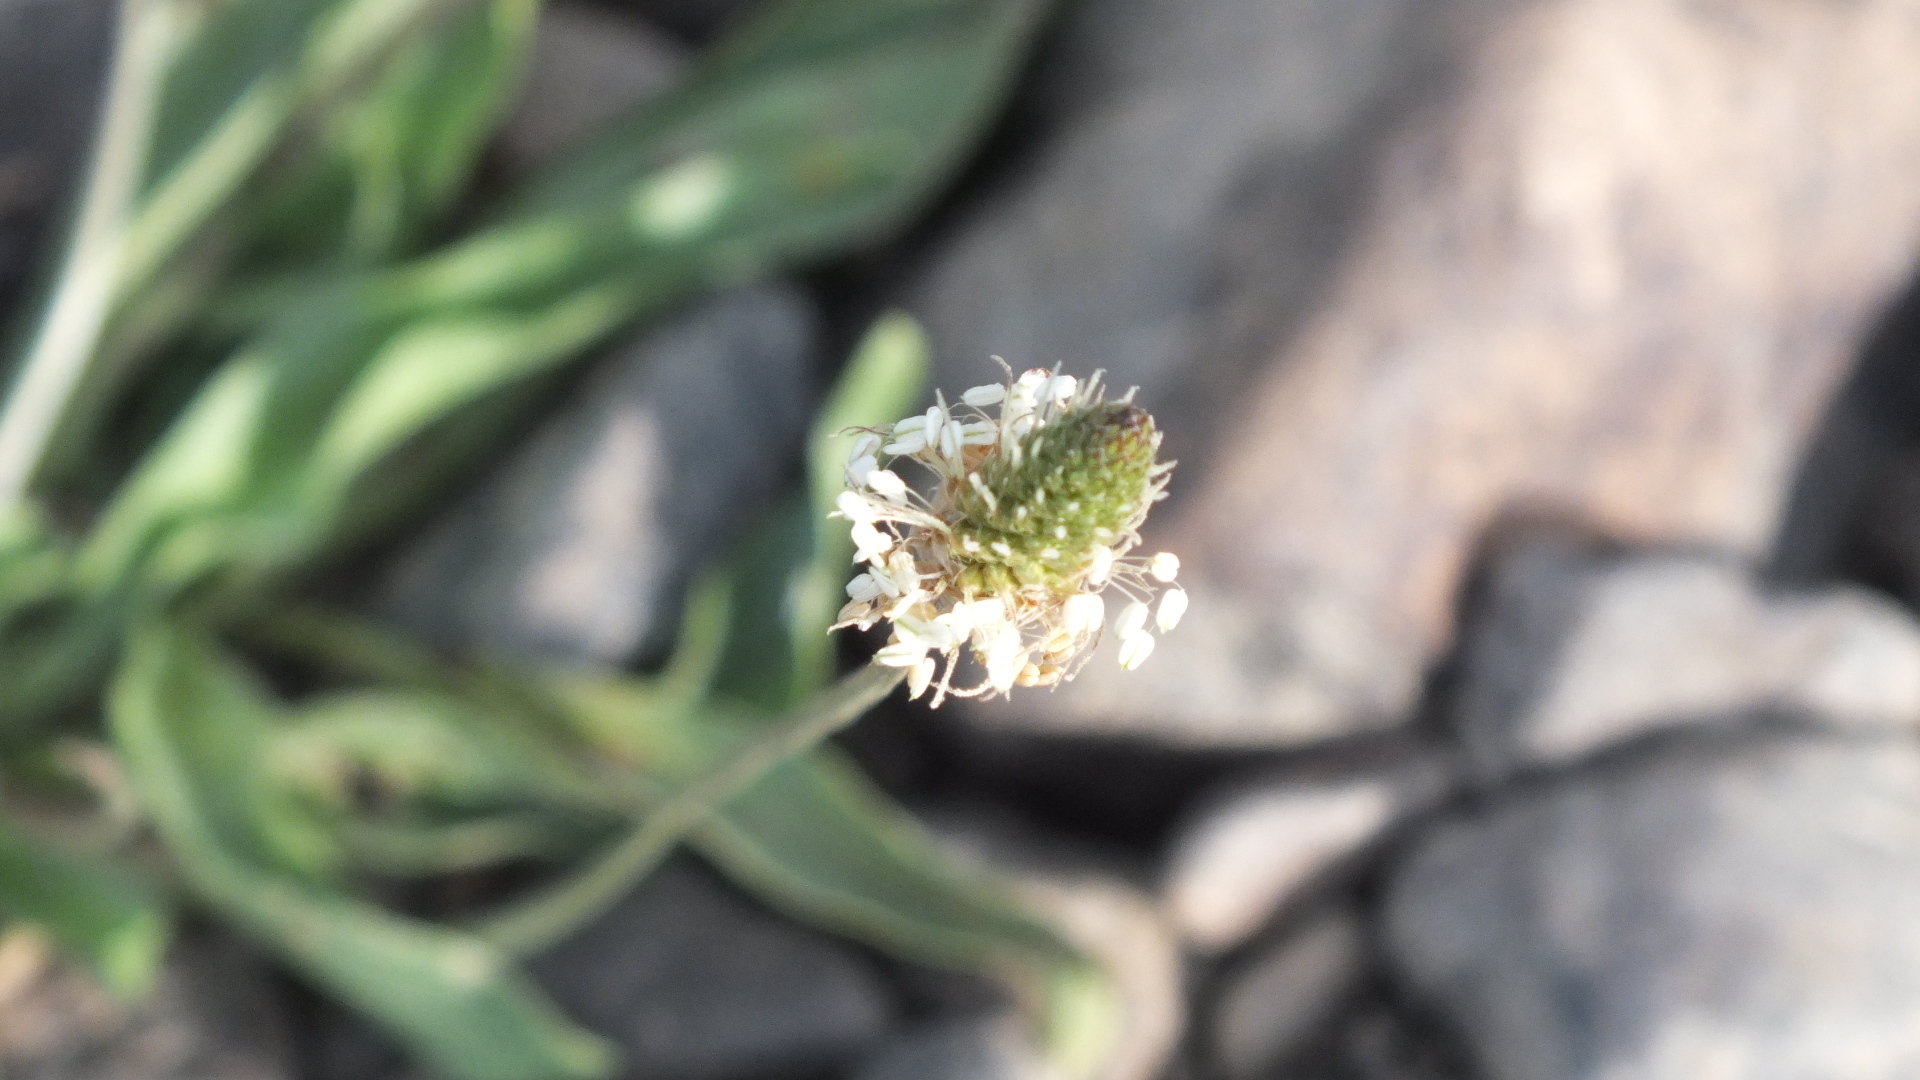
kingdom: Plantae
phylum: Tracheophyta
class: Magnoliopsida
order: Lamiales
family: Plantaginaceae
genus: Plantago
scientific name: Plantago lanceolata
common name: Ribwort plantain
